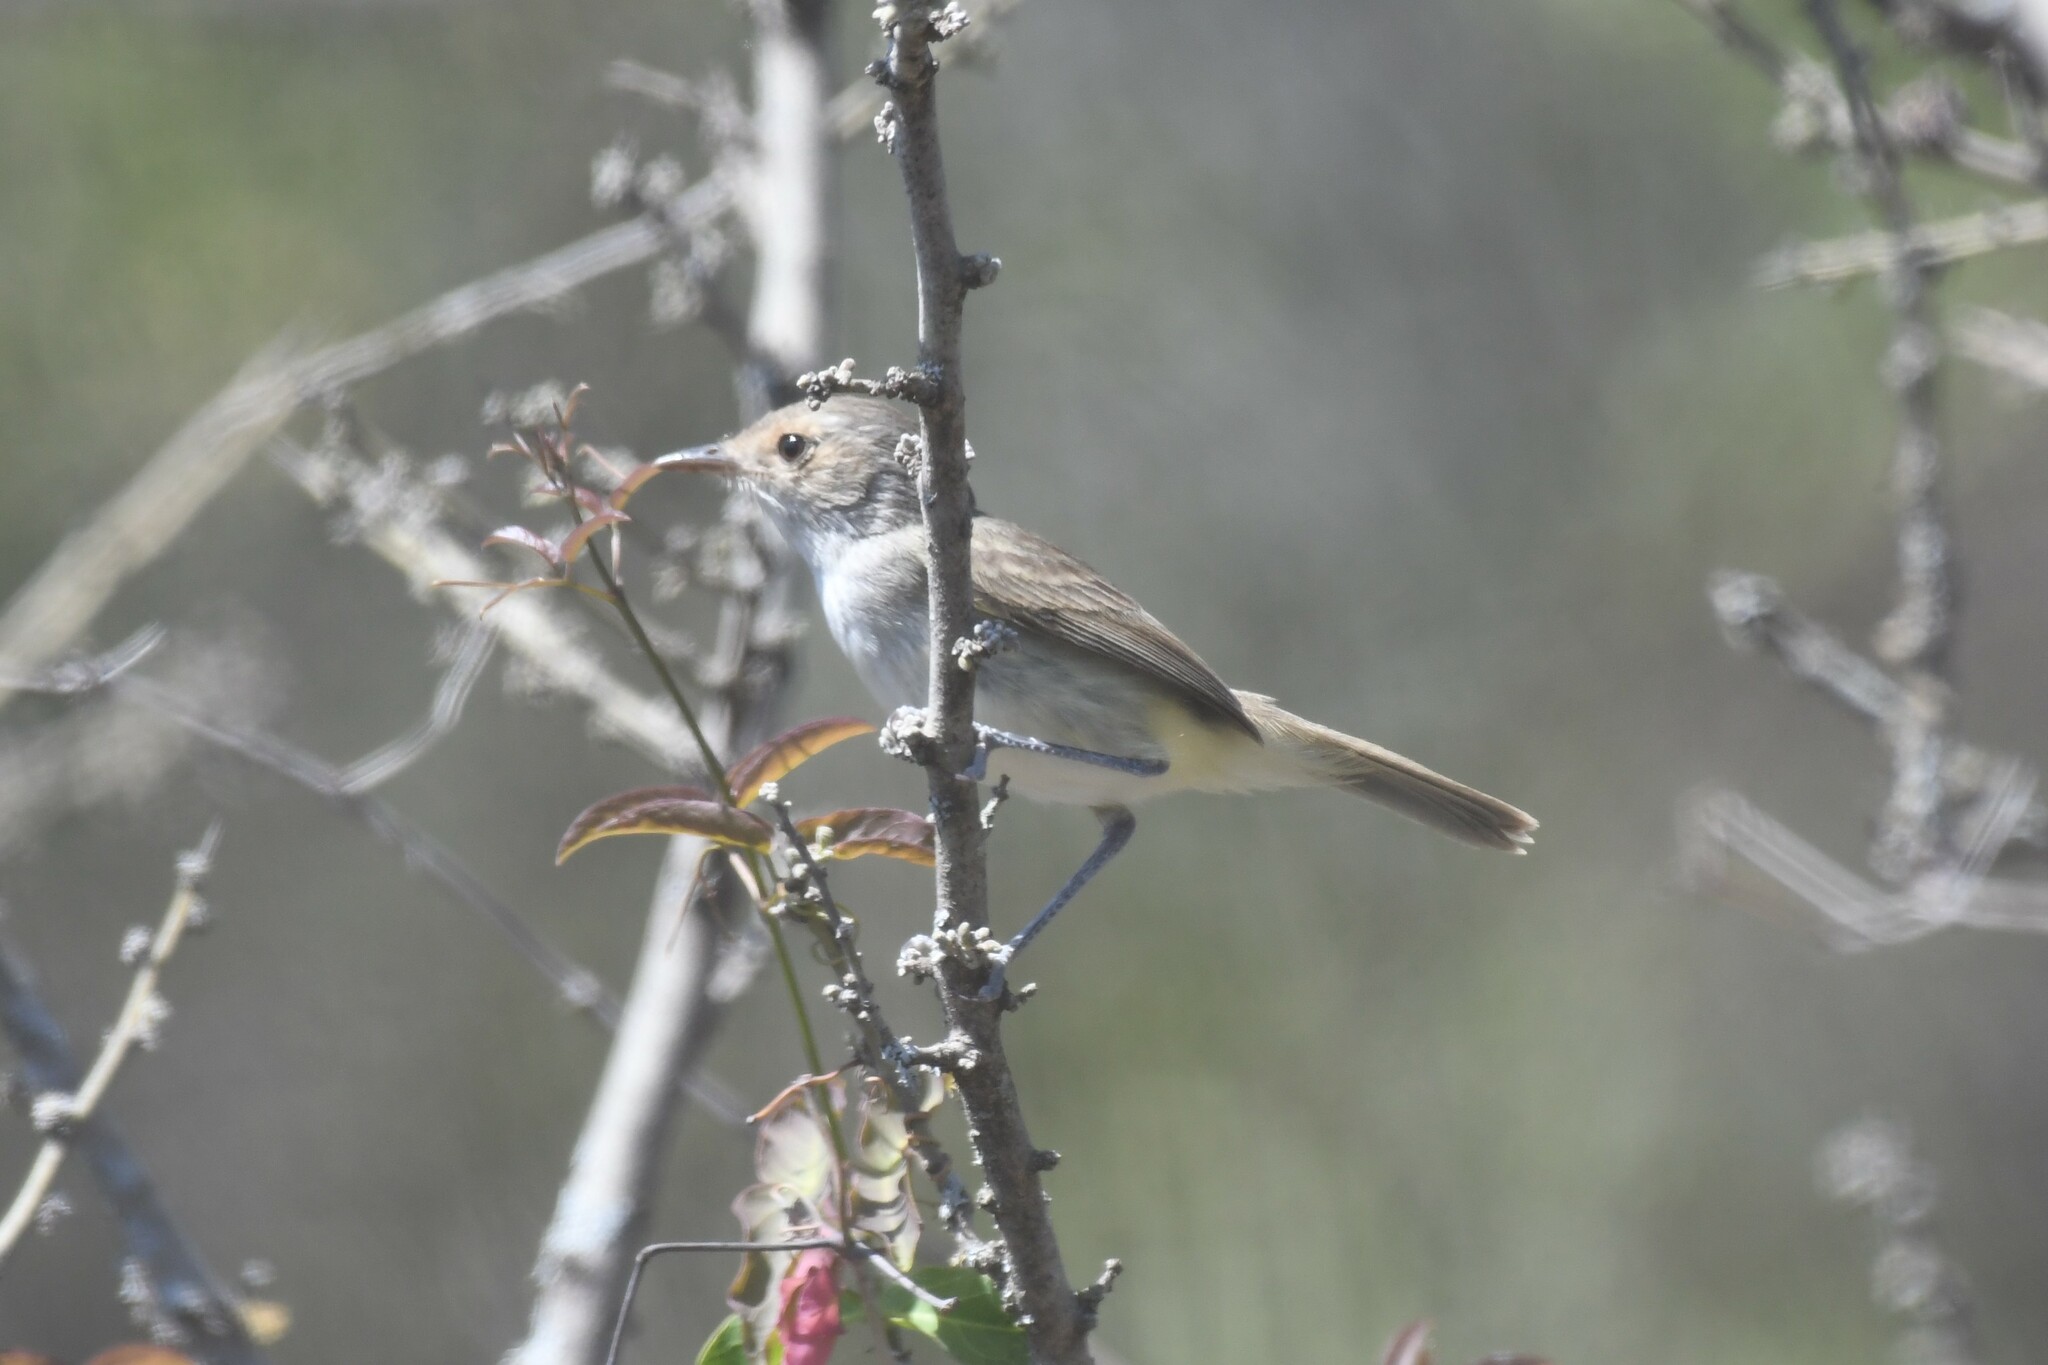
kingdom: Animalia
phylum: Chordata
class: Aves
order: Passeriformes
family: Tyrannidae
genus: Euscarthmus
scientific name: Euscarthmus meloryphus
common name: Tawny-crowned pygmy tyrant
